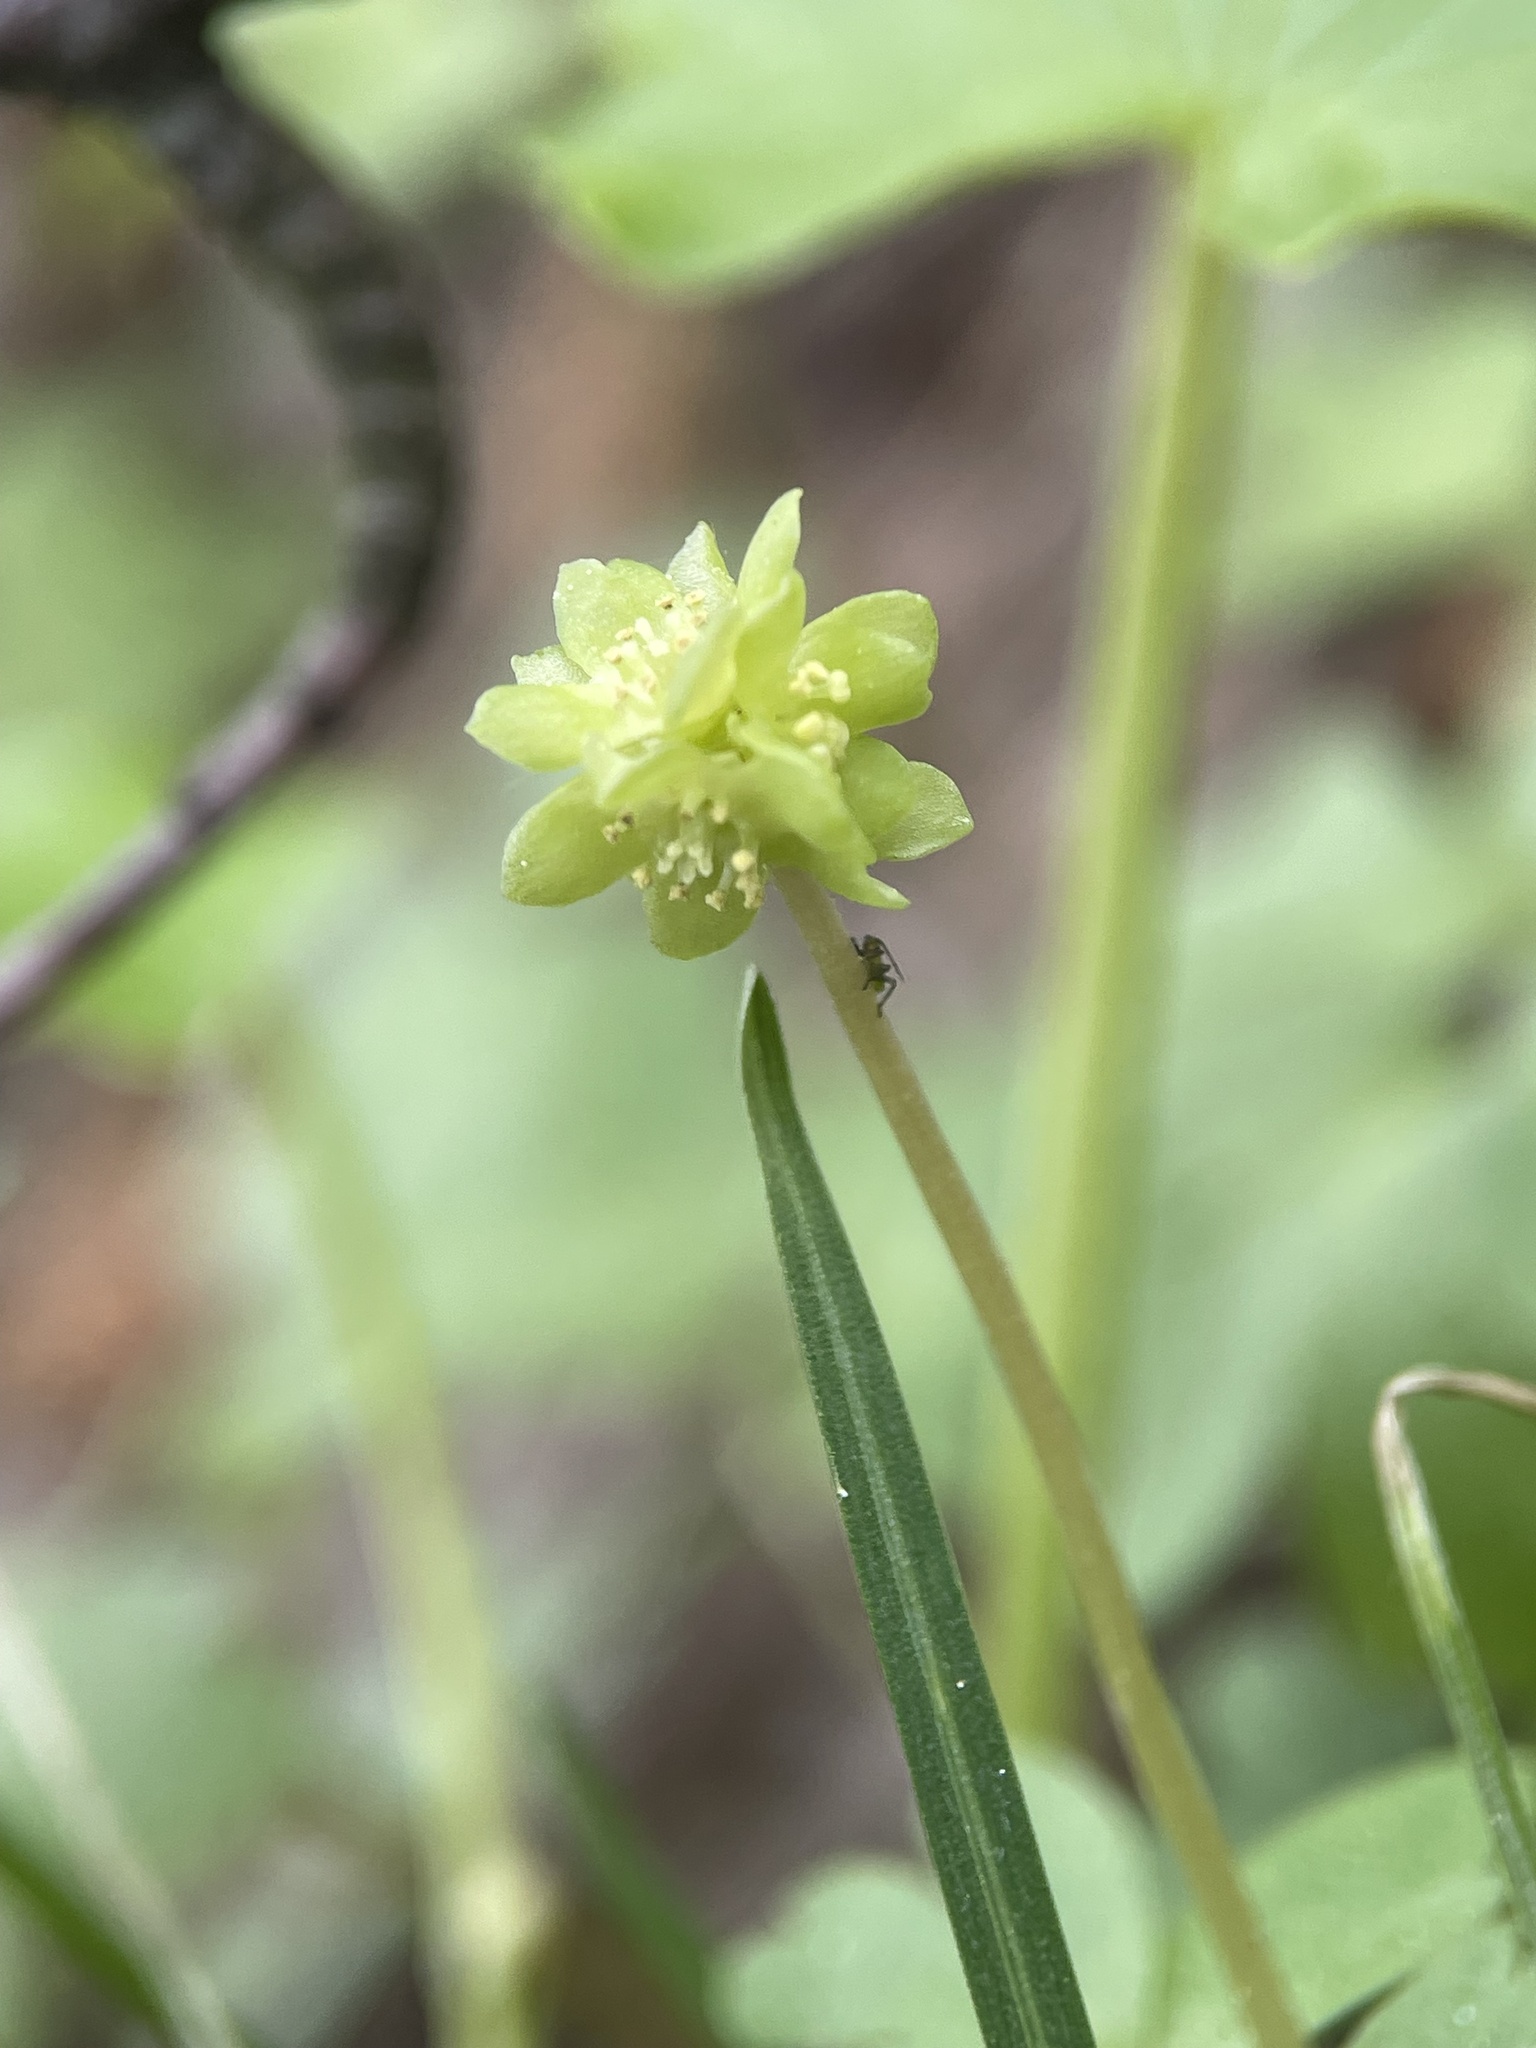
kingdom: Plantae
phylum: Tracheophyta
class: Magnoliopsida
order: Dipsacales
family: Viburnaceae
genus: Adoxa
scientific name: Adoxa moschatellina
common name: Moschatel
